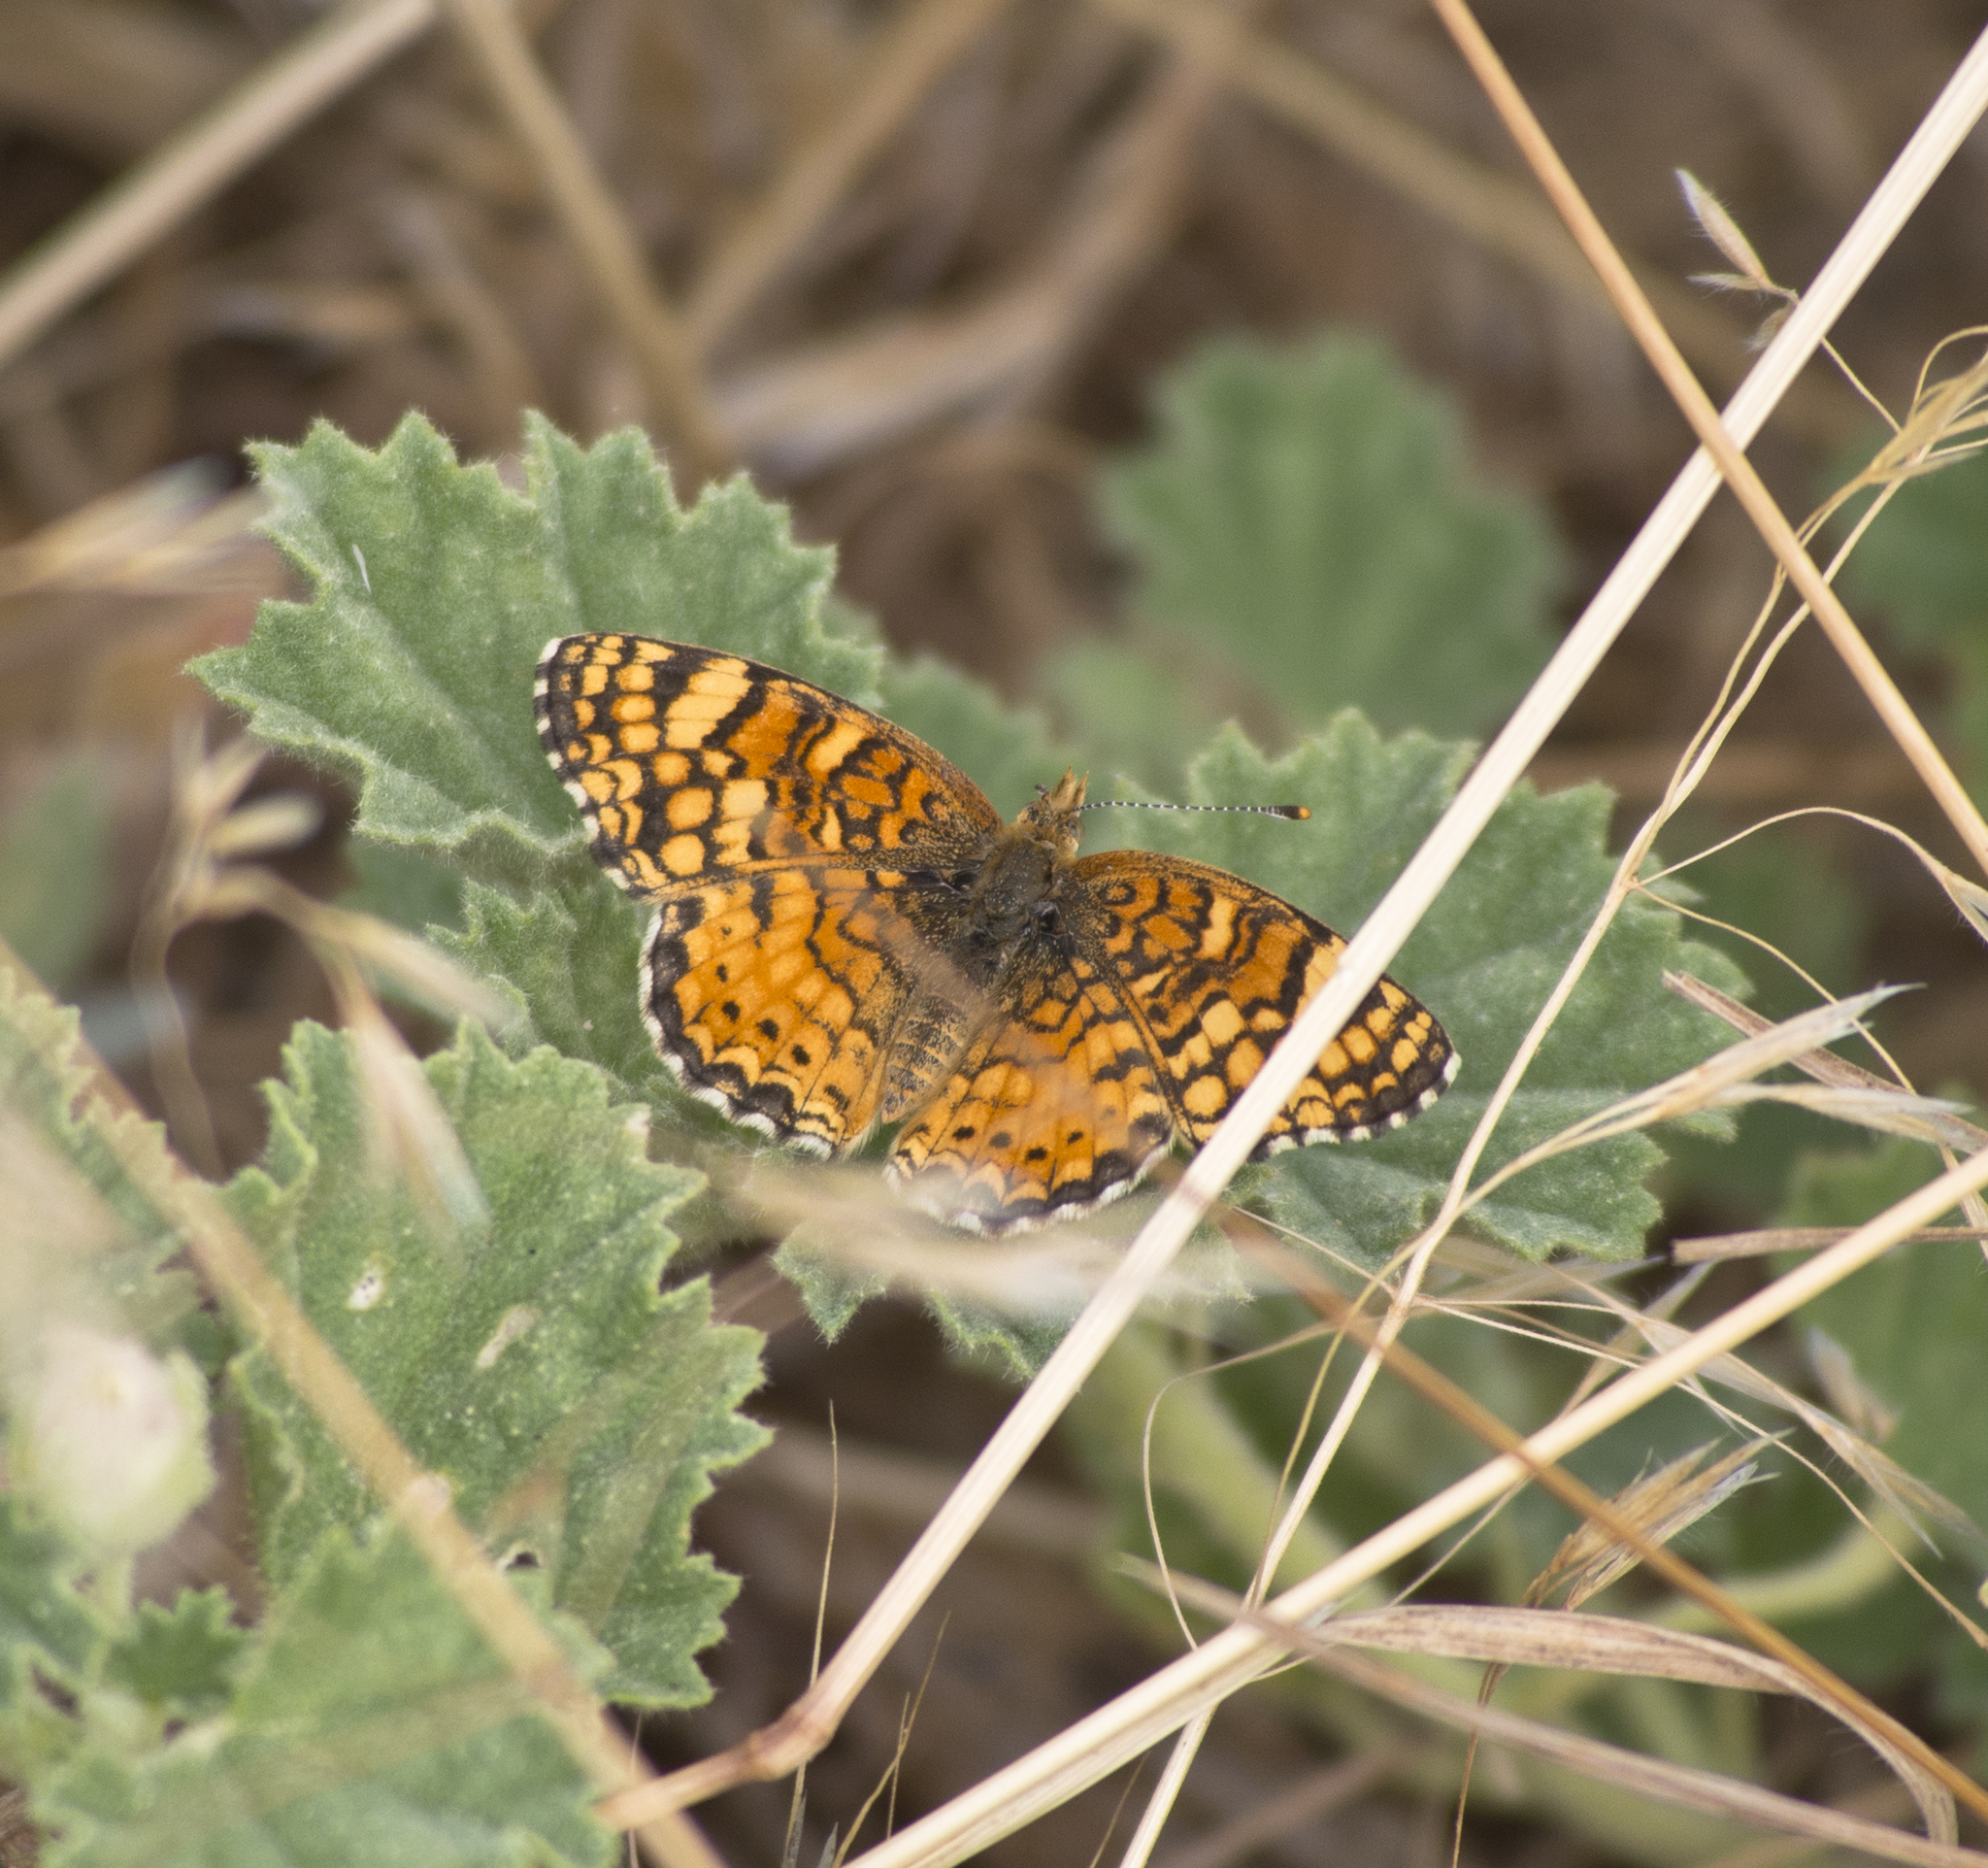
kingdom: Animalia
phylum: Arthropoda
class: Insecta
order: Lepidoptera
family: Nymphalidae
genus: Eresia
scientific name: Eresia aveyrona
